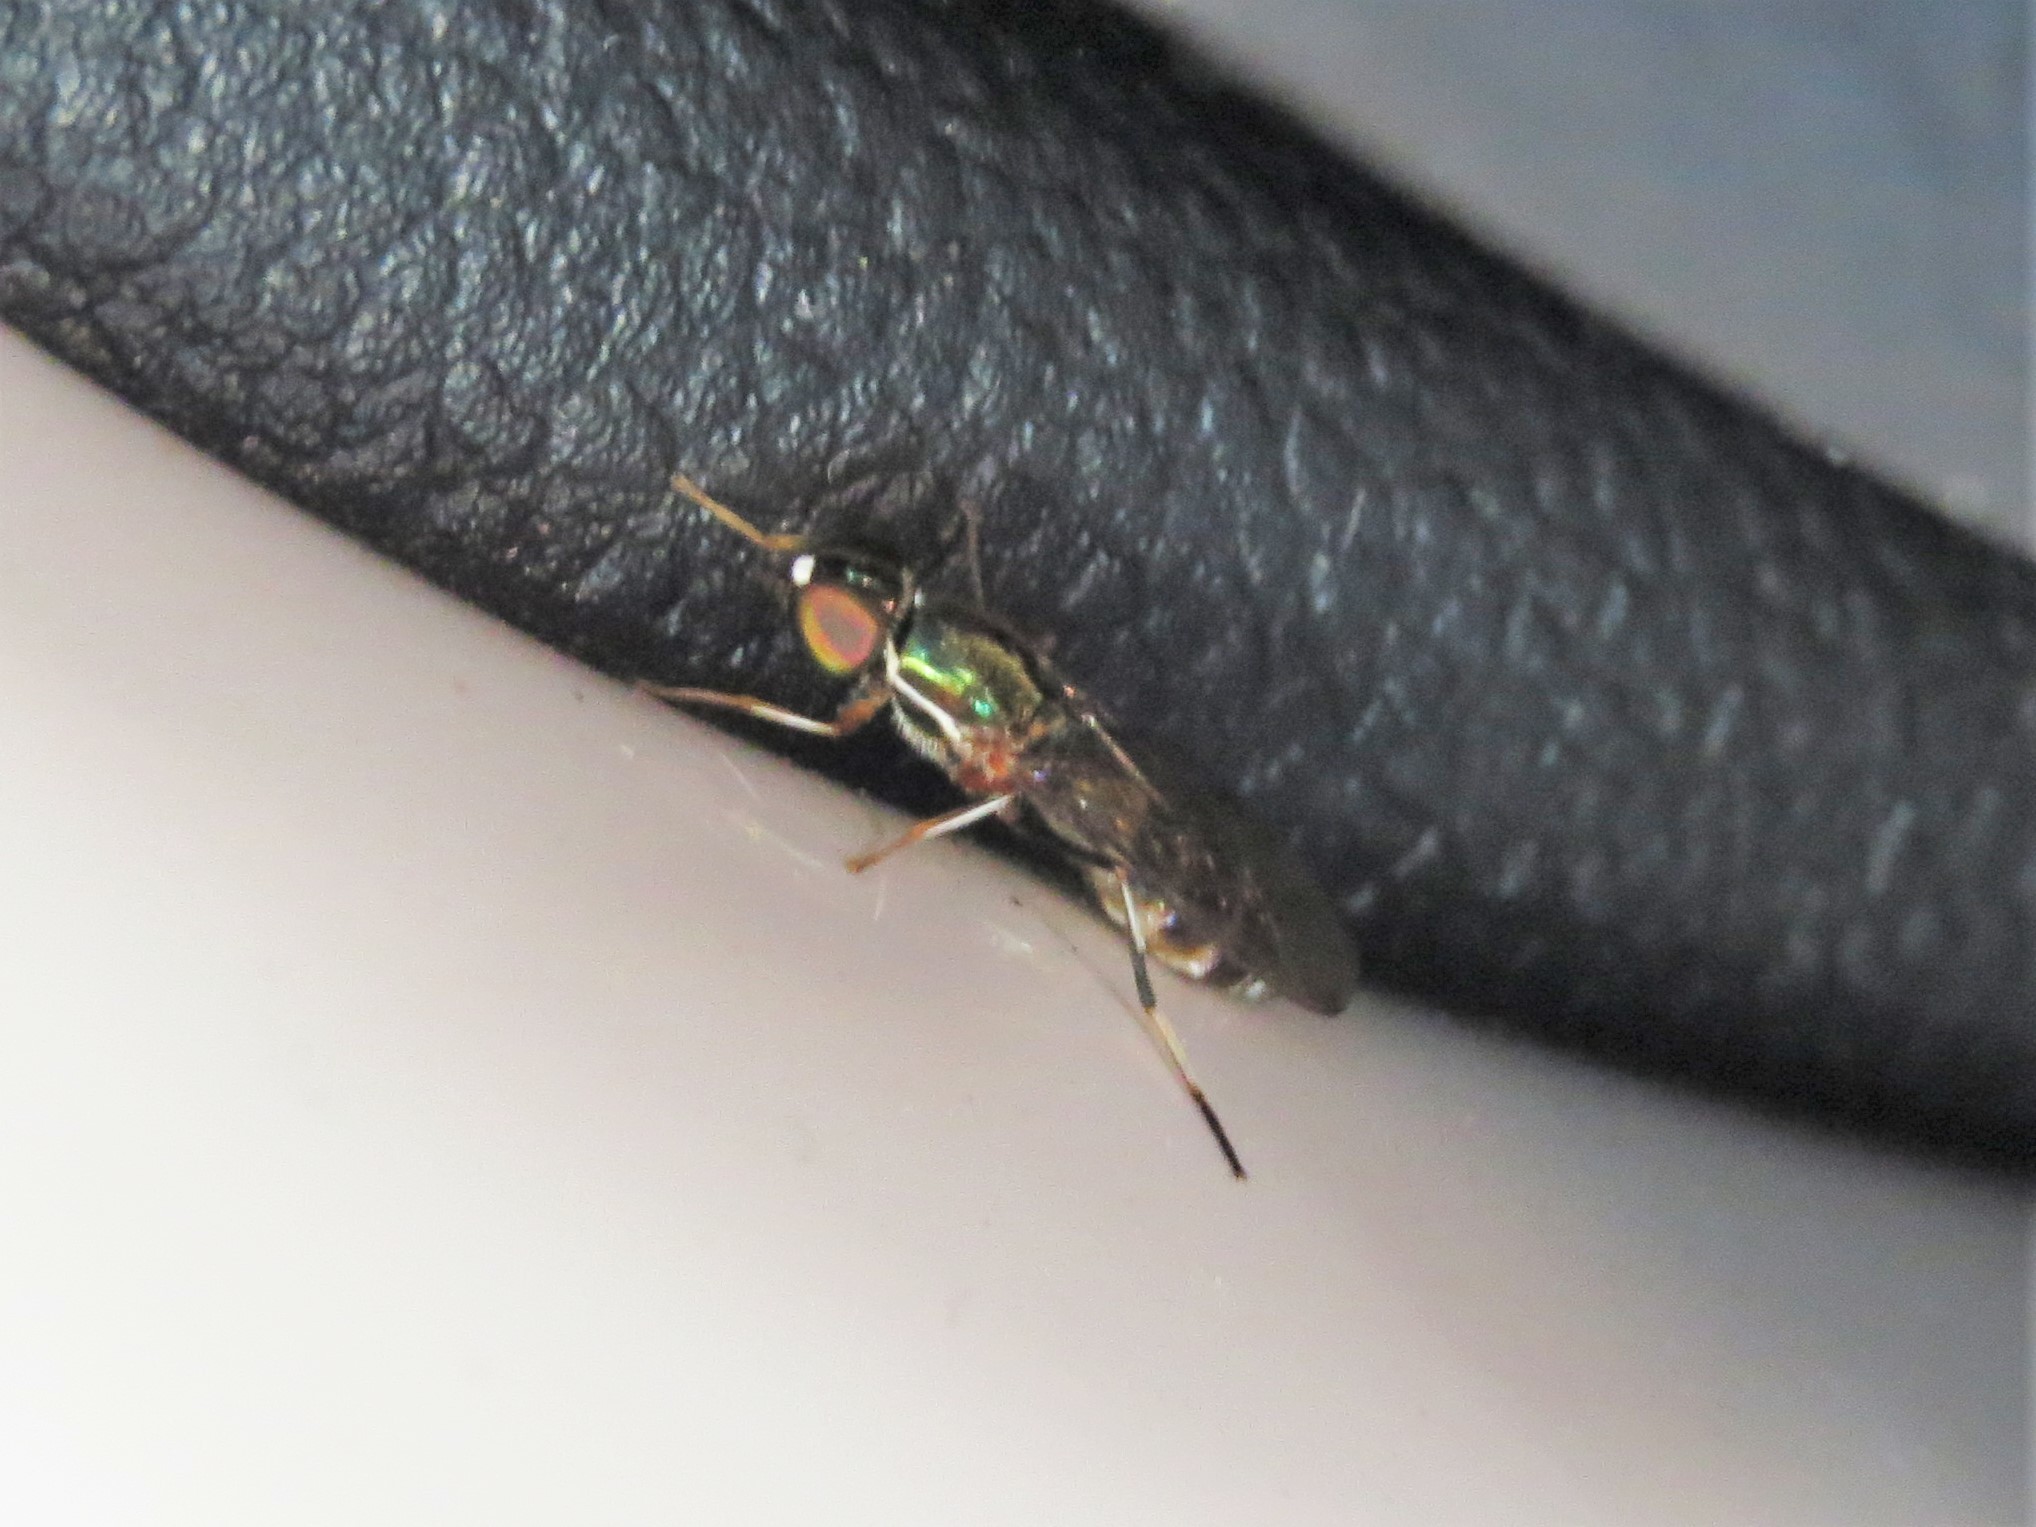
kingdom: Animalia
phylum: Arthropoda
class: Insecta
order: Diptera
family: Stratiomyidae
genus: Sargus
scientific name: Sargus fasciatus
